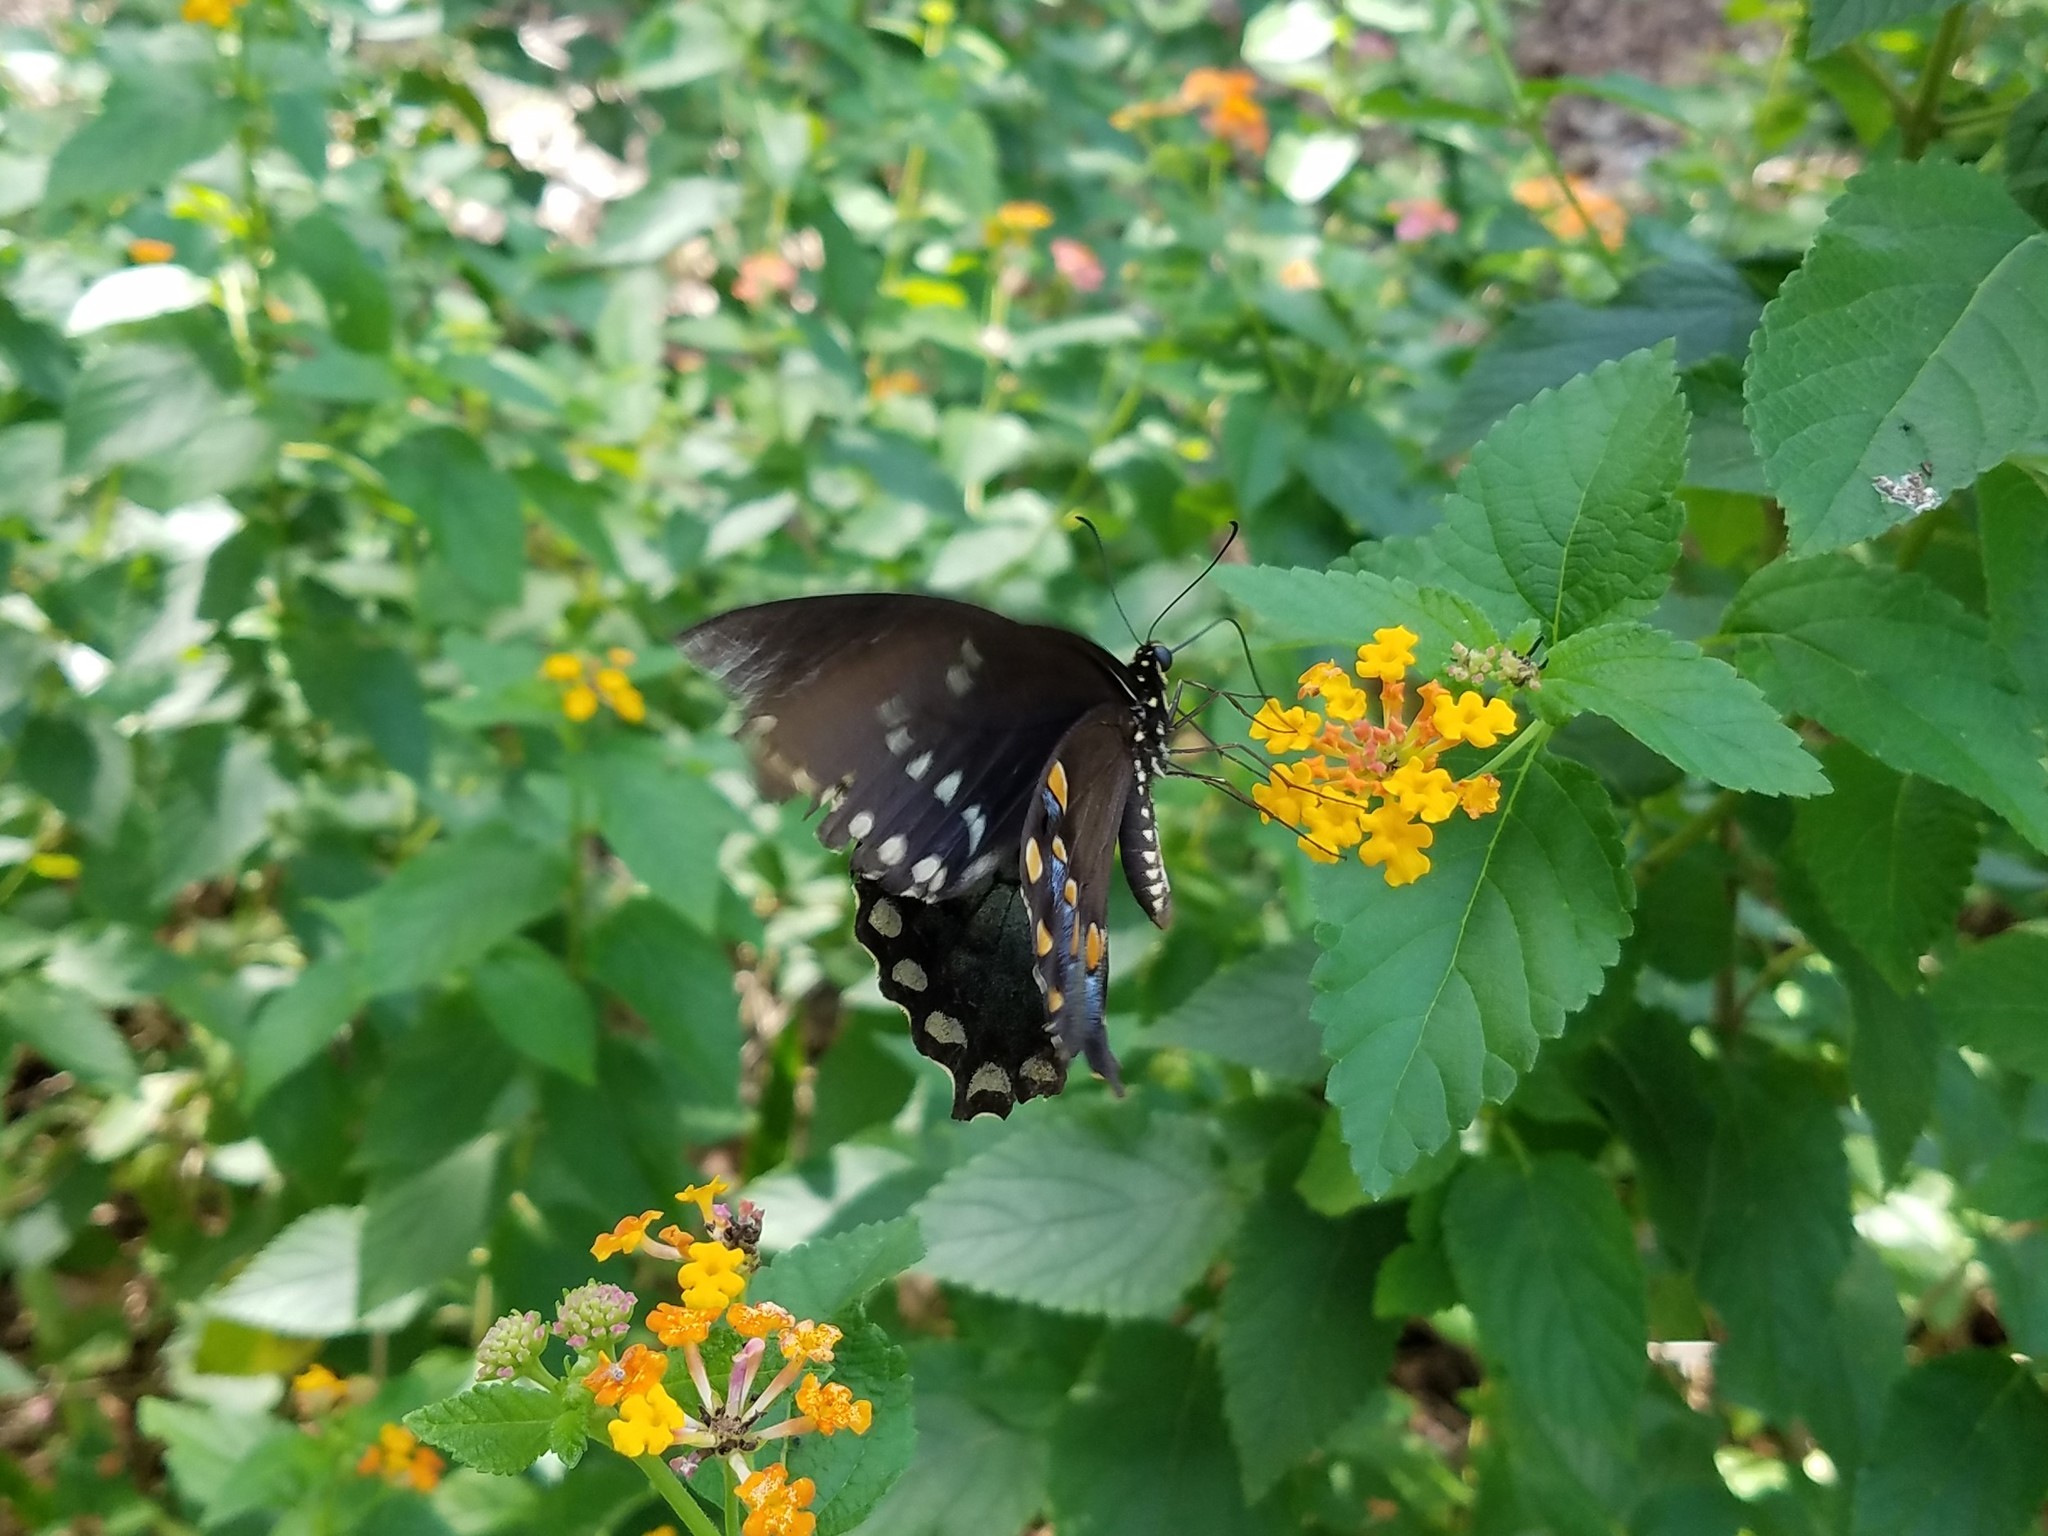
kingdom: Animalia
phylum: Arthropoda
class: Insecta
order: Lepidoptera
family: Papilionidae
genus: Papilio
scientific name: Papilio troilus
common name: Spicebush swallowtail
